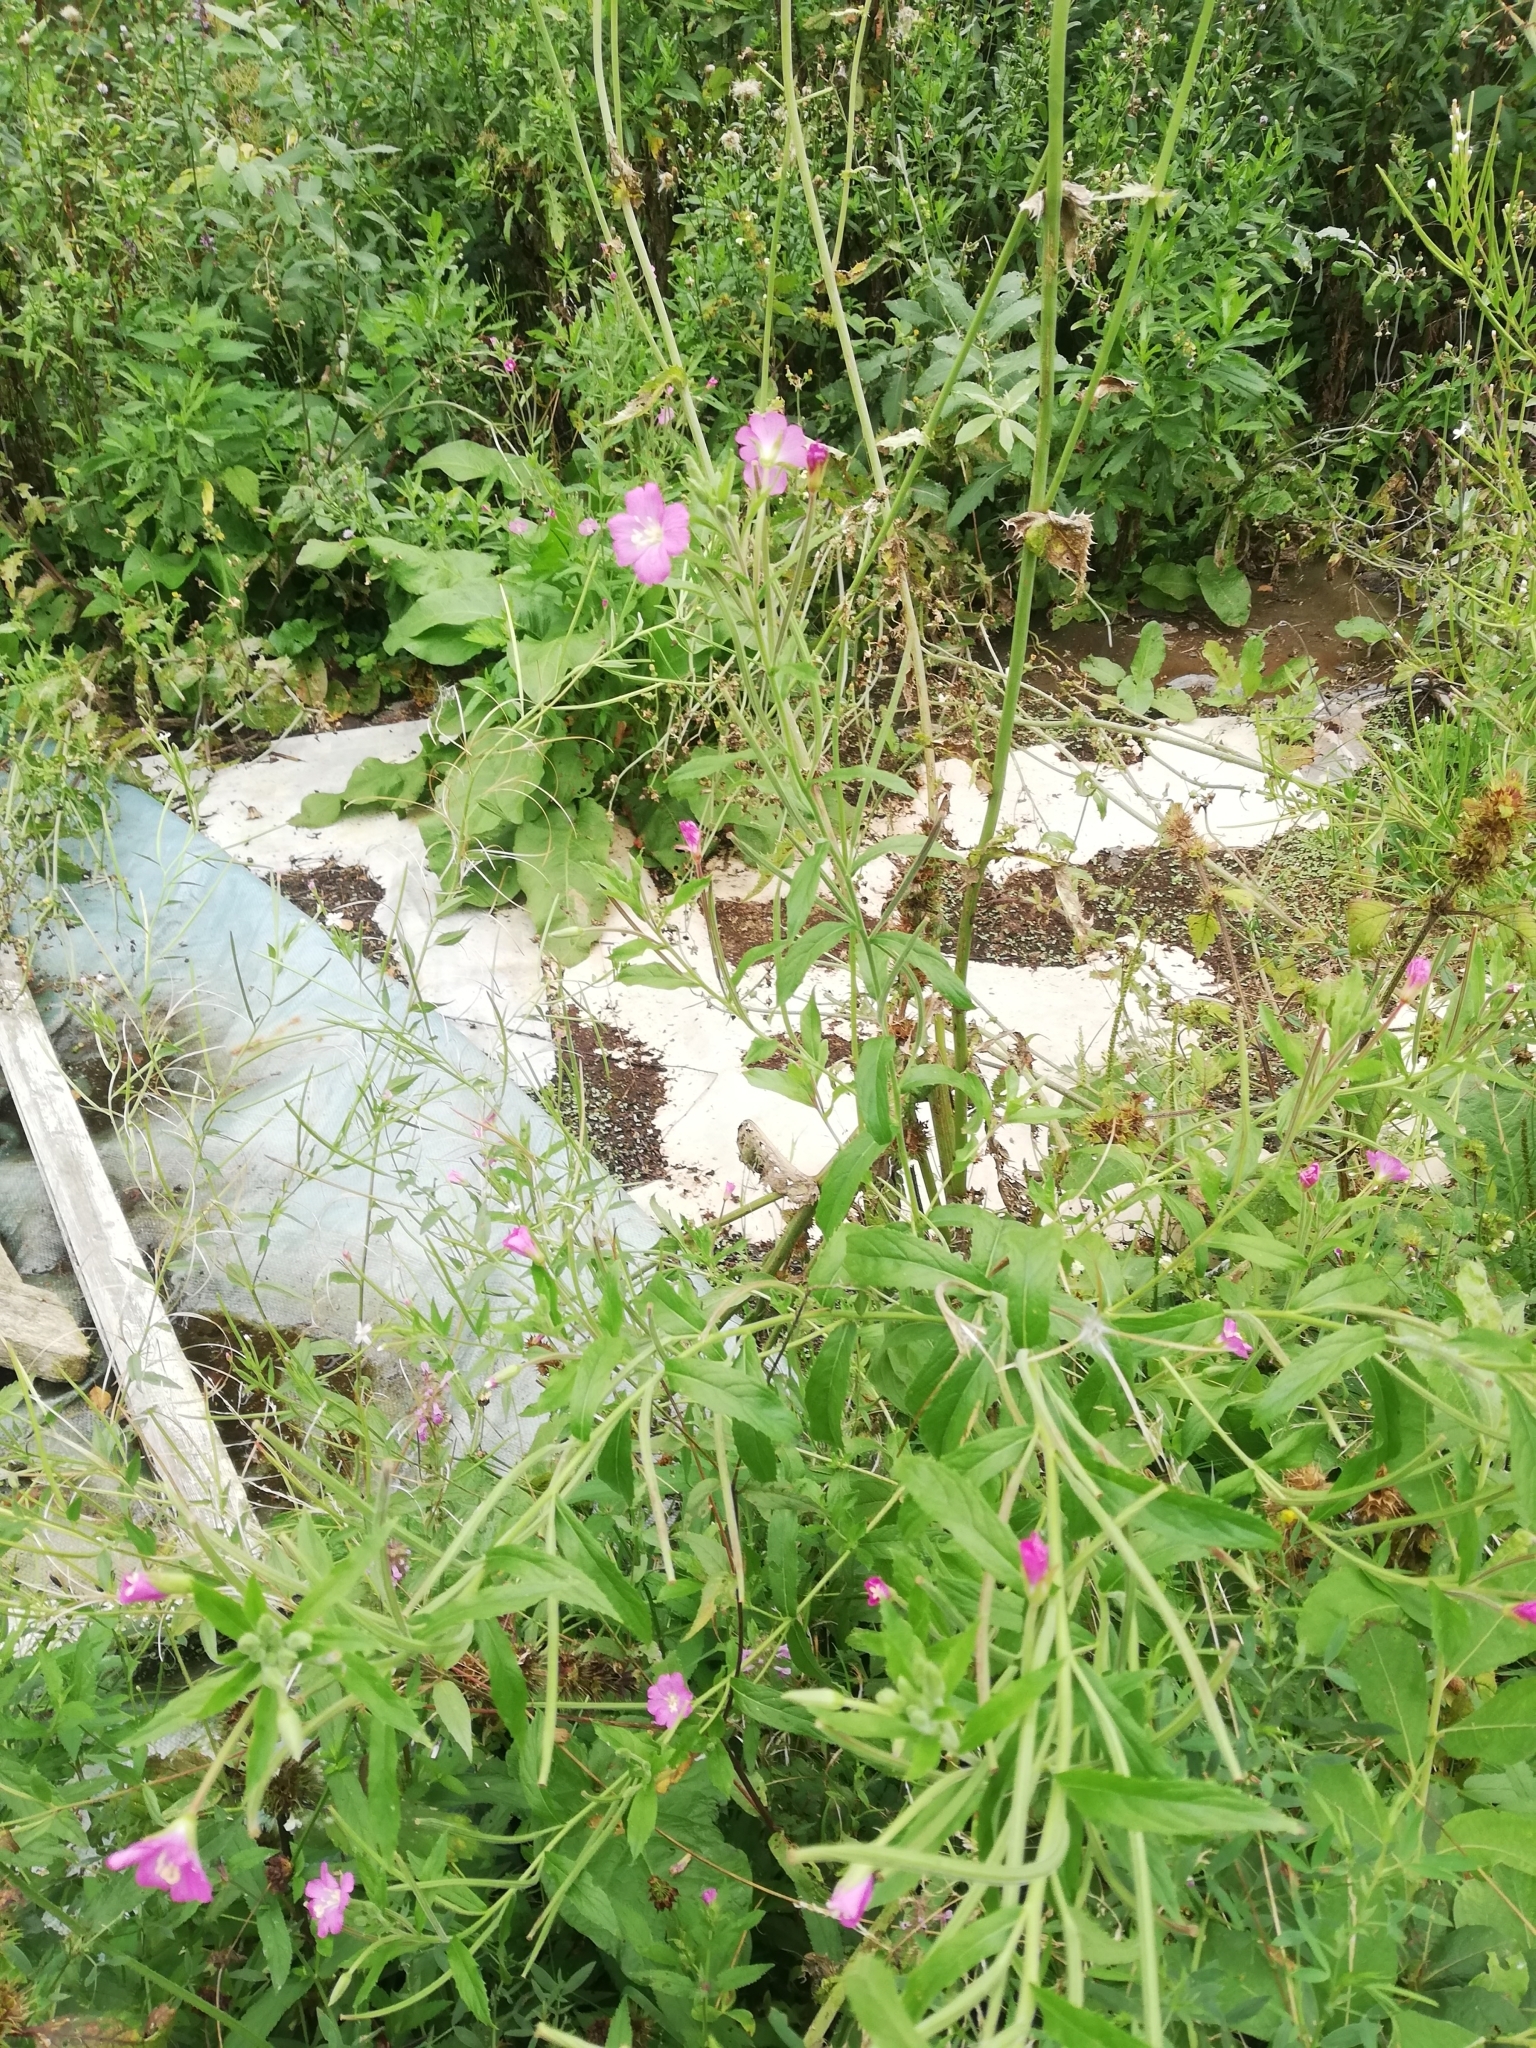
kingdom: Plantae
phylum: Tracheophyta
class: Magnoliopsida
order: Myrtales
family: Onagraceae
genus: Epilobium
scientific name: Epilobium hirsutum
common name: Great willowherb
